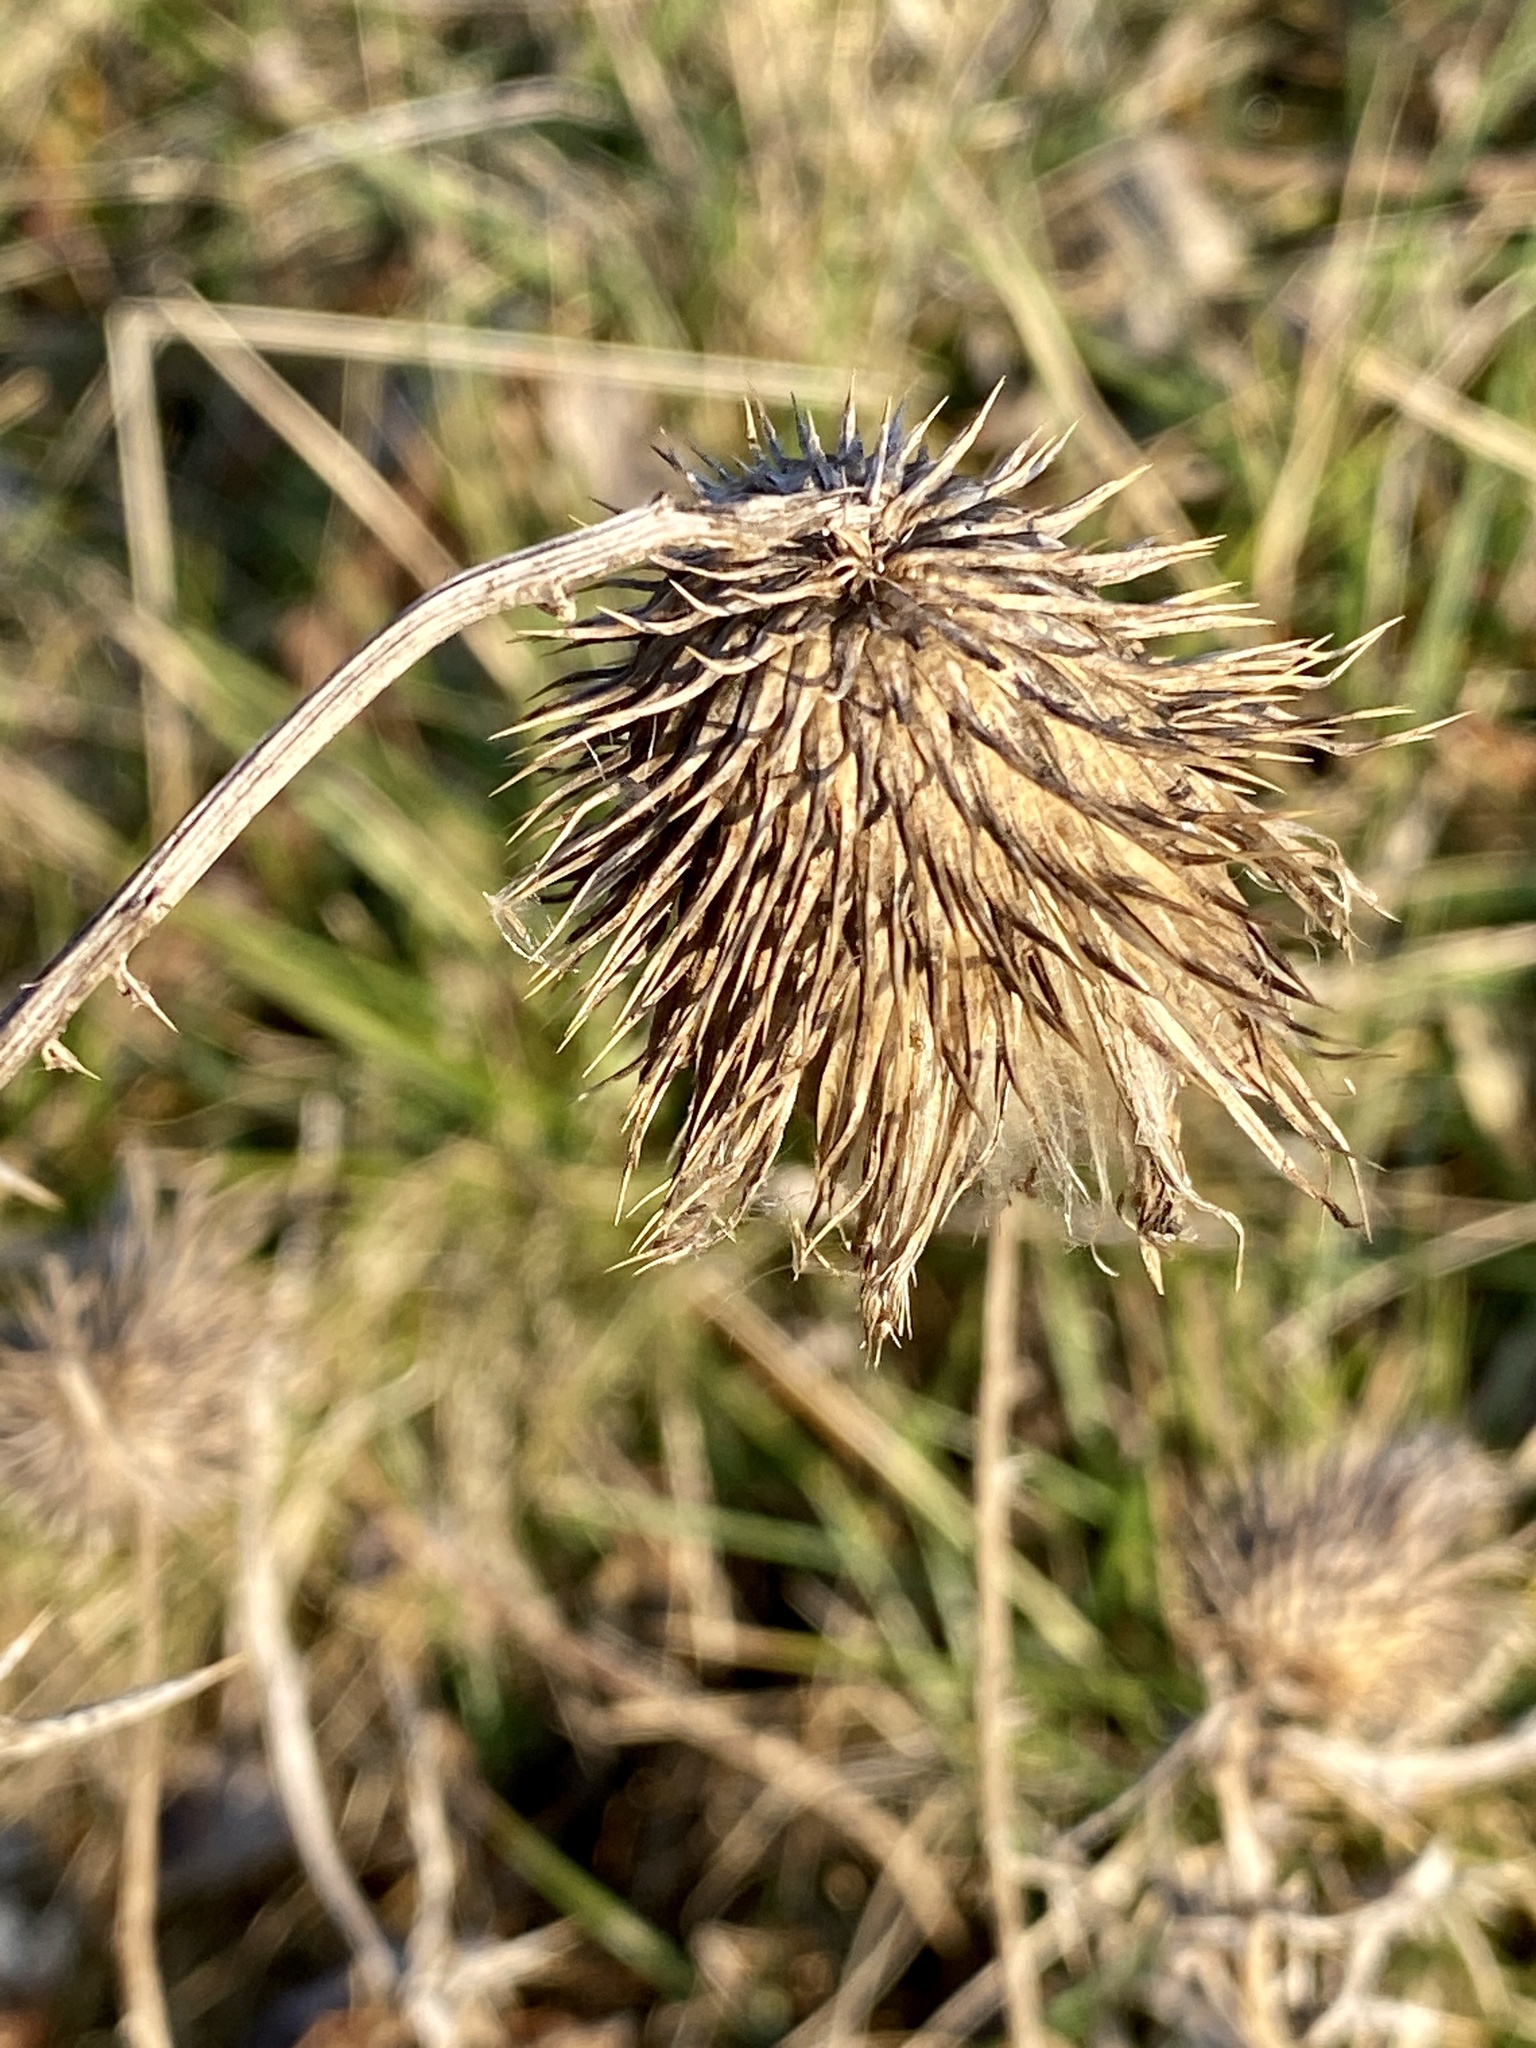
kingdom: Plantae
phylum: Tracheophyta
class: Magnoliopsida
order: Asterales
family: Asteraceae
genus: Cirsium
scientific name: Cirsium vulgare
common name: Bull thistle
